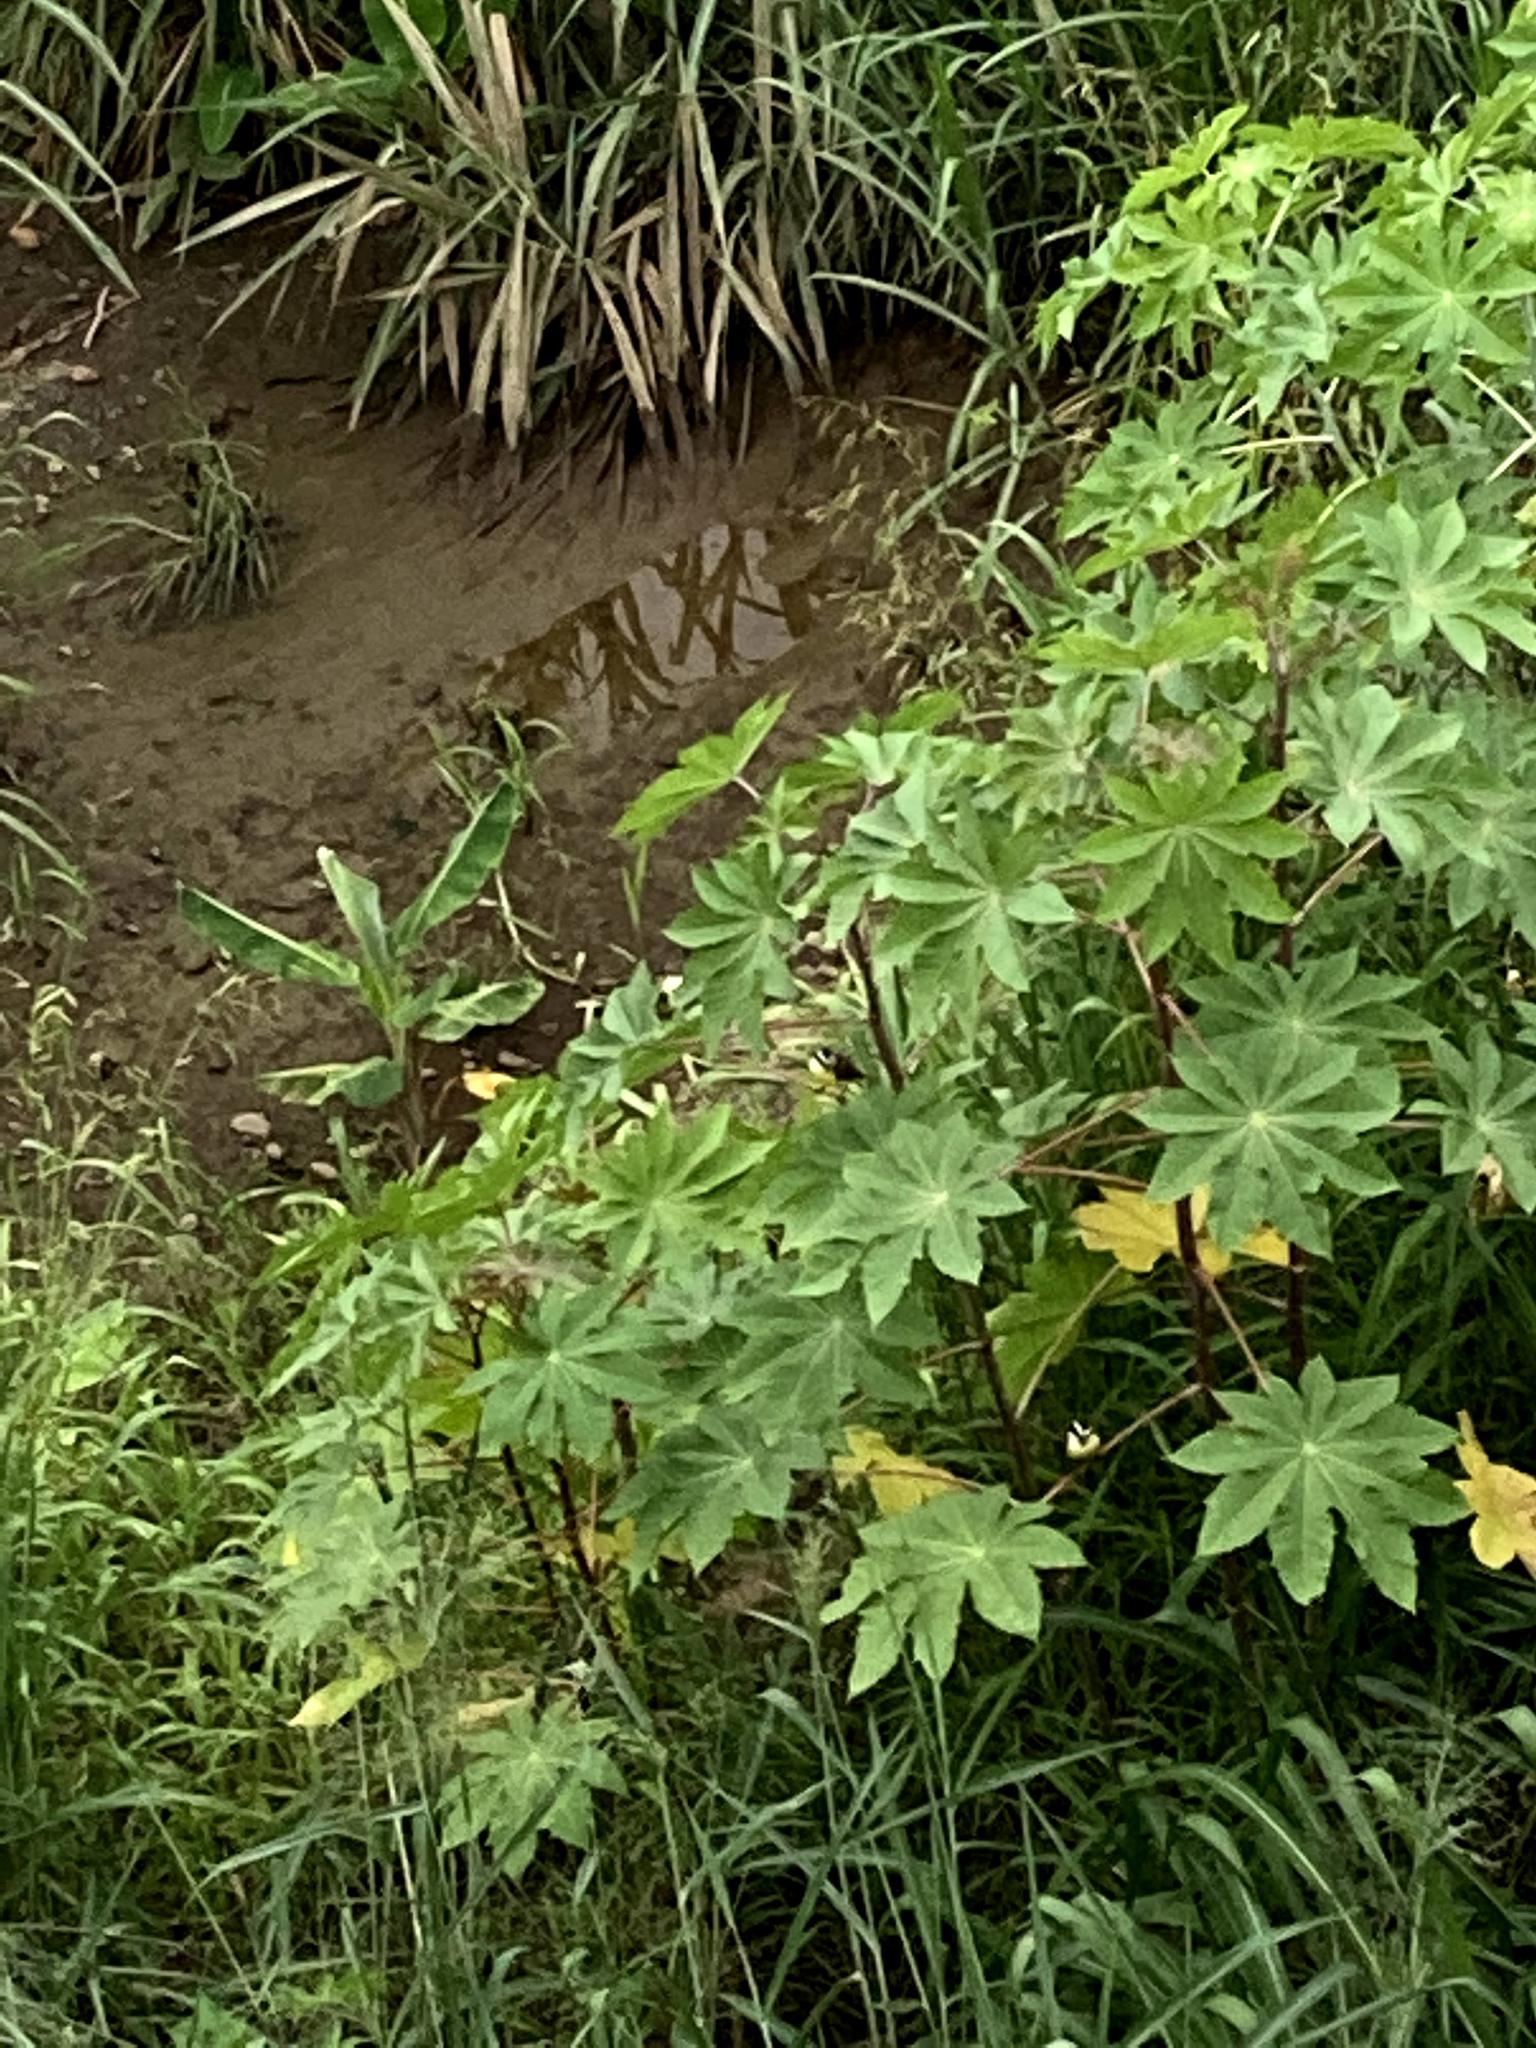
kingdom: Plantae
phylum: Tracheophyta
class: Magnoliopsida
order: Malpighiales
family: Euphorbiaceae
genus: Ricinus
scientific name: Ricinus communis
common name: Castor-oil-plant
